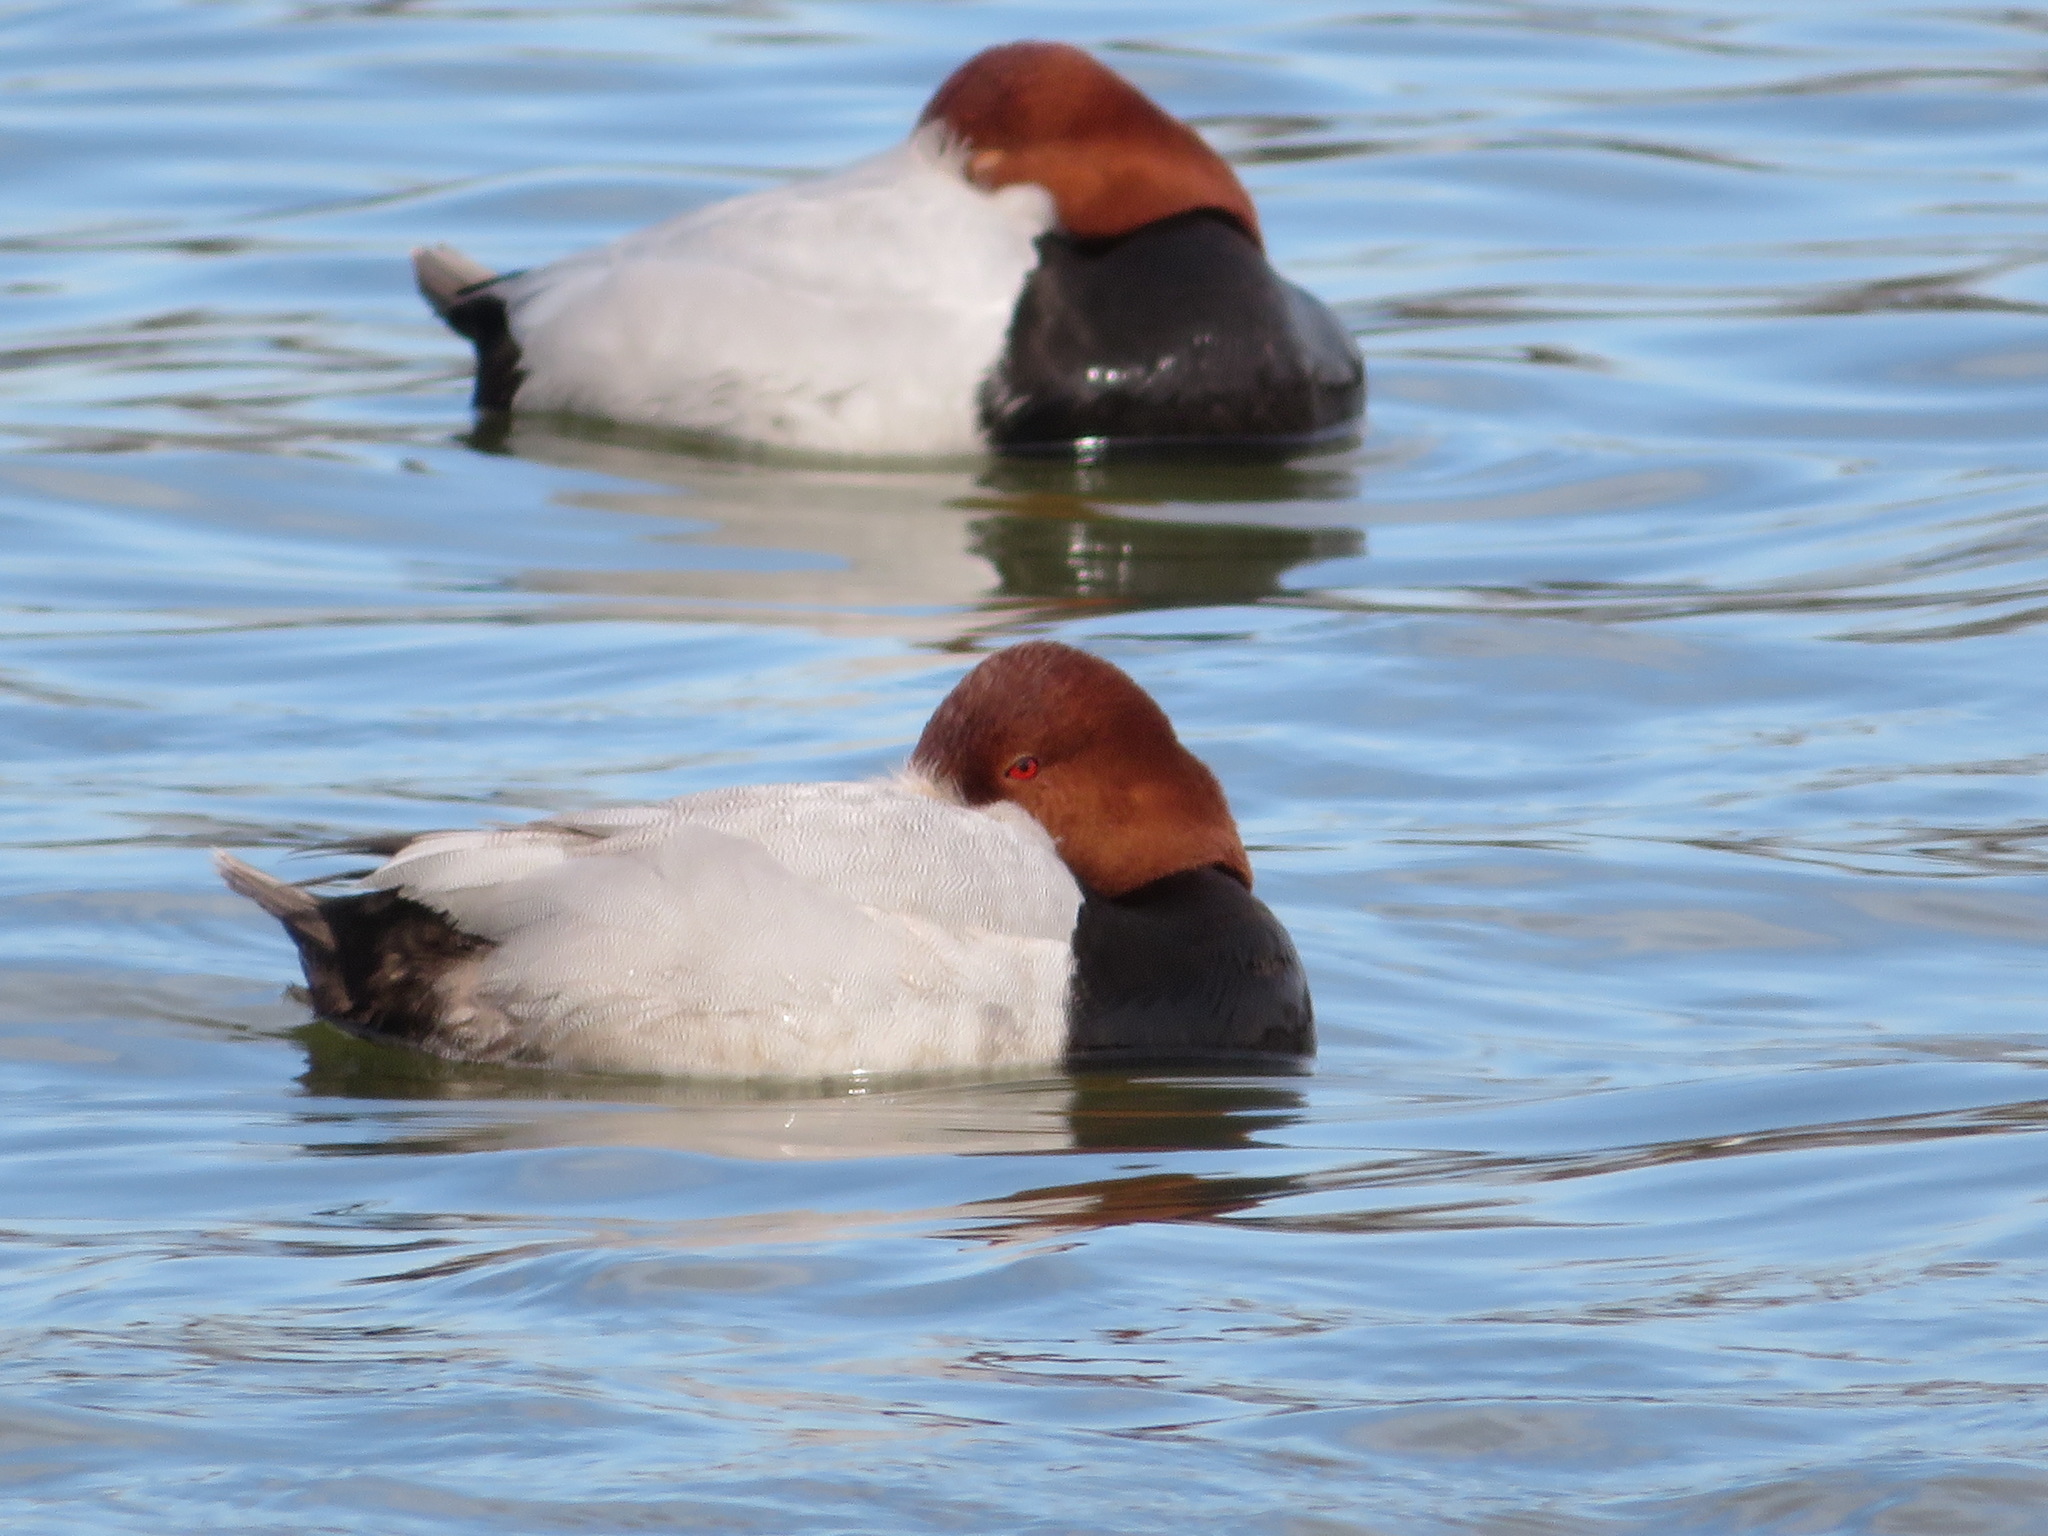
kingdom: Animalia
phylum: Chordata
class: Aves
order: Anseriformes
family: Anatidae
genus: Aythya
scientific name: Aythya ferina
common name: Common pochard
